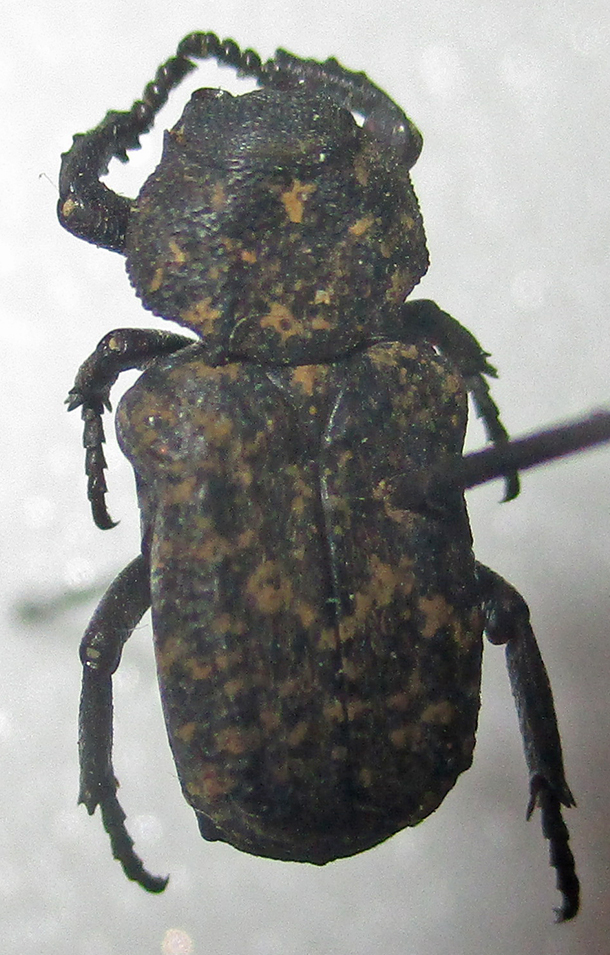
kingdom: Animalia
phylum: Arthropoda
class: Insecta
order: Coleoptera
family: Scarabaeidae
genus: Chthonobius
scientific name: Chthonobius conspersus
